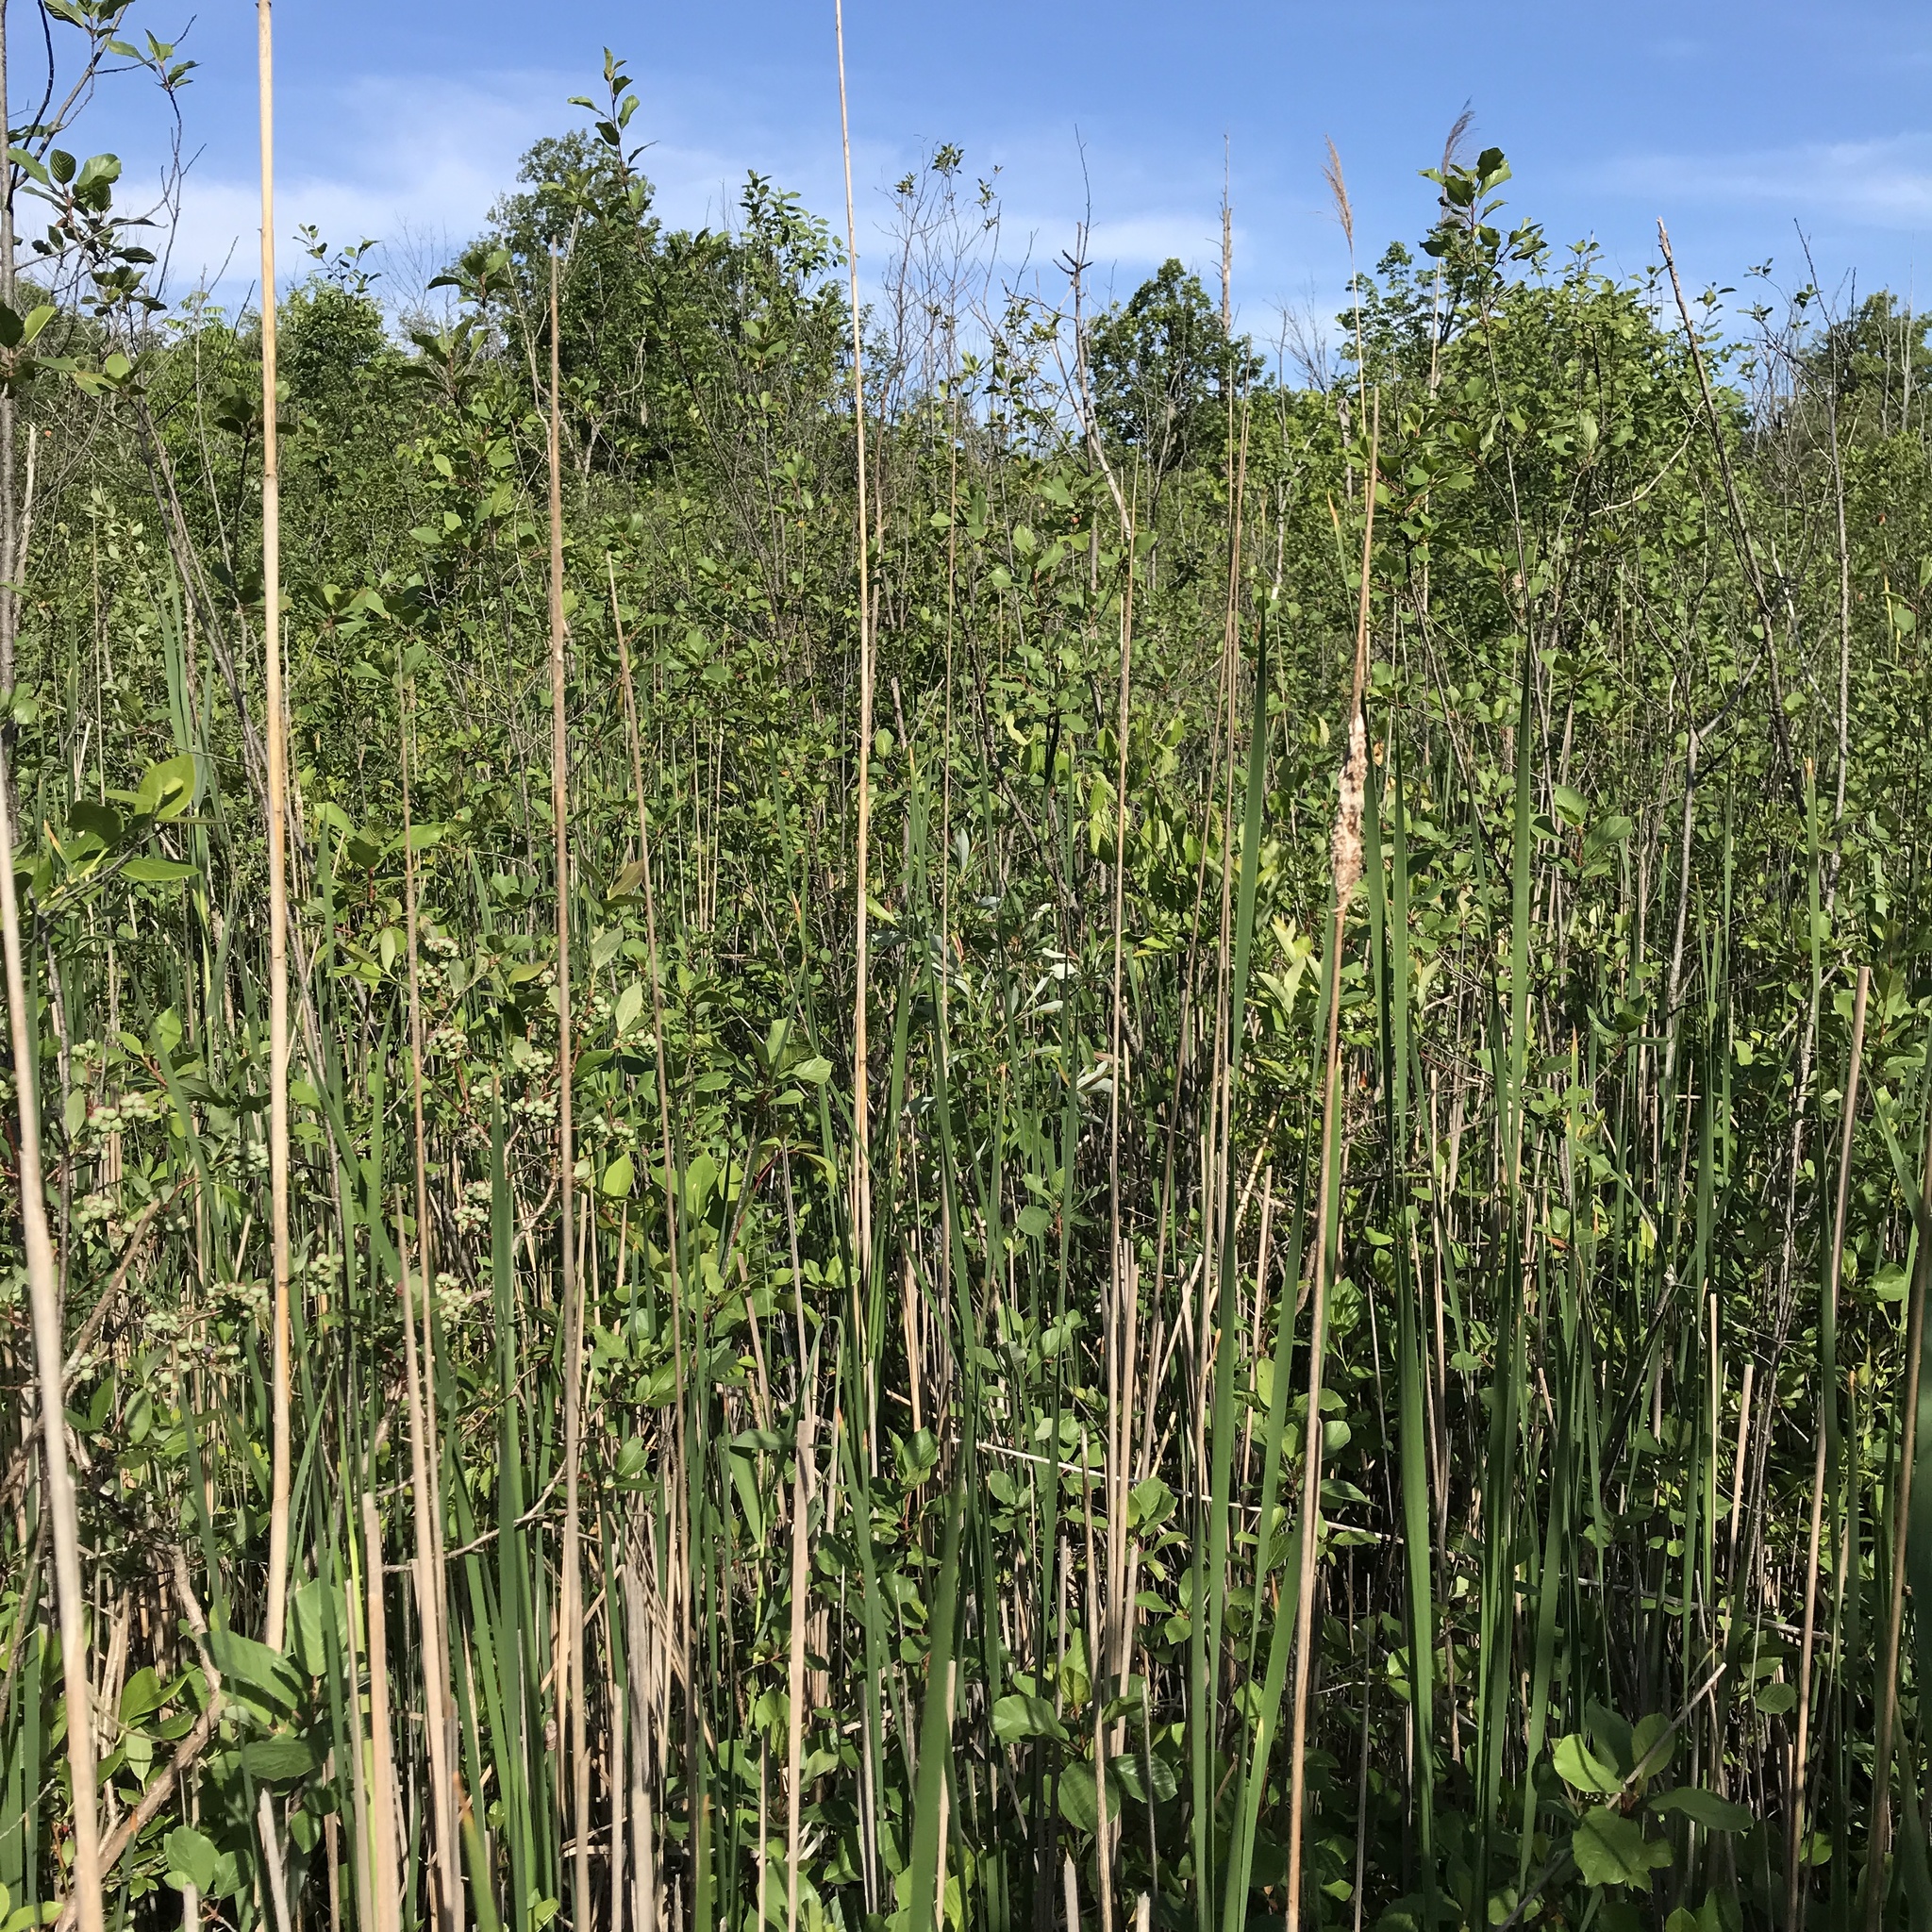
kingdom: Plantae
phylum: Tracheophyta
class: Liliopsida
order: Poales
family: Typhaceae
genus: Typha
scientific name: Typha angustifolia
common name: Lesser bulrush
